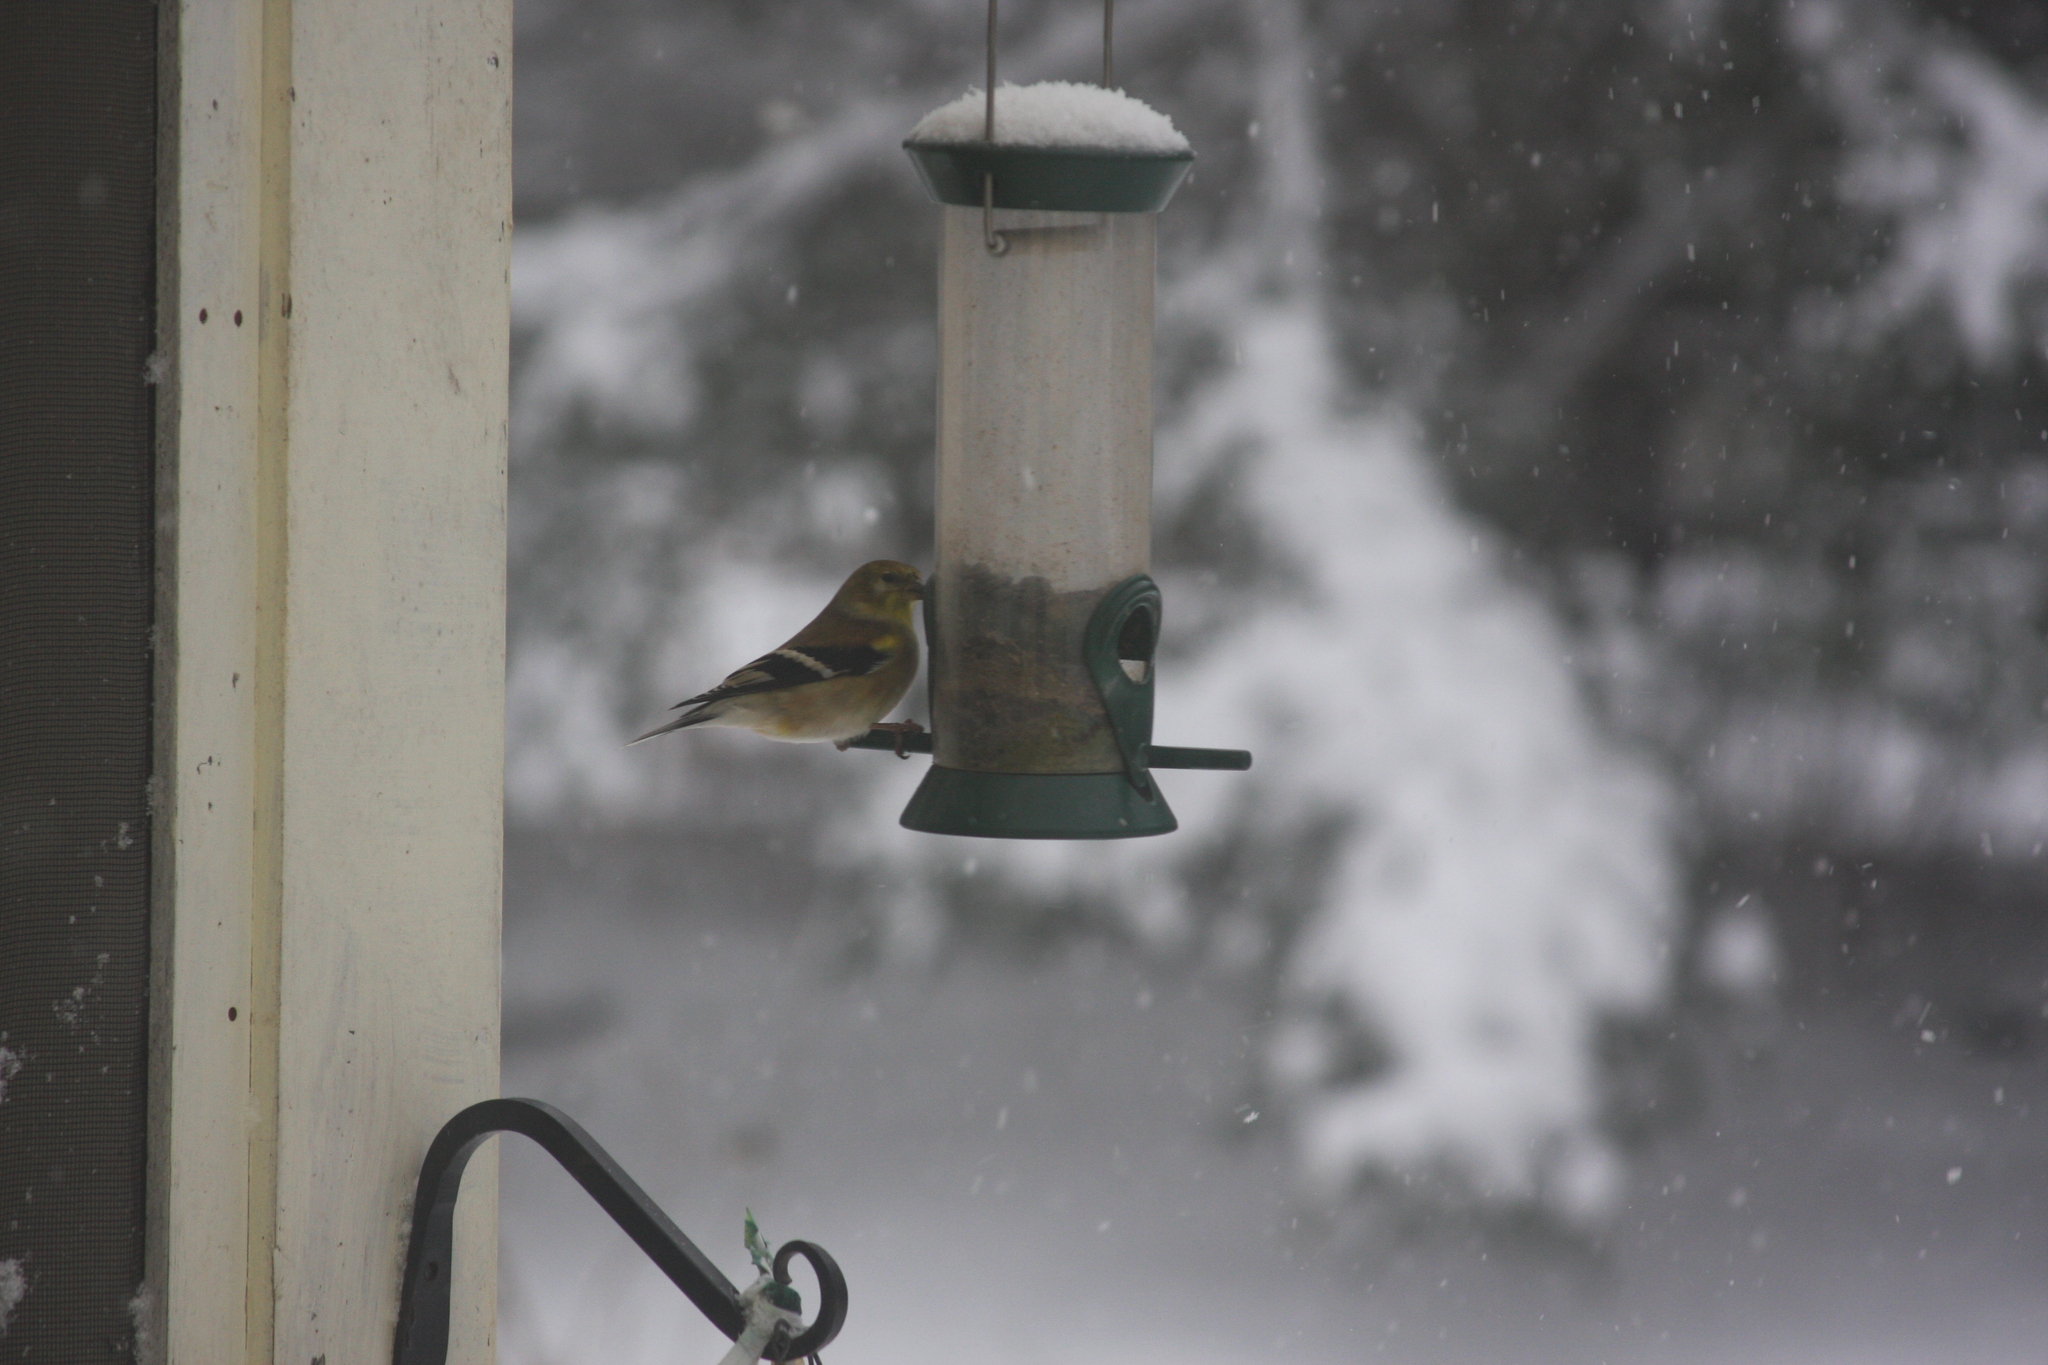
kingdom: Animalia
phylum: Chordata
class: Aves
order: Passeriformes
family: Fringillidae
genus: Spinus
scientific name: Spinus tristis
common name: American goldfinch
